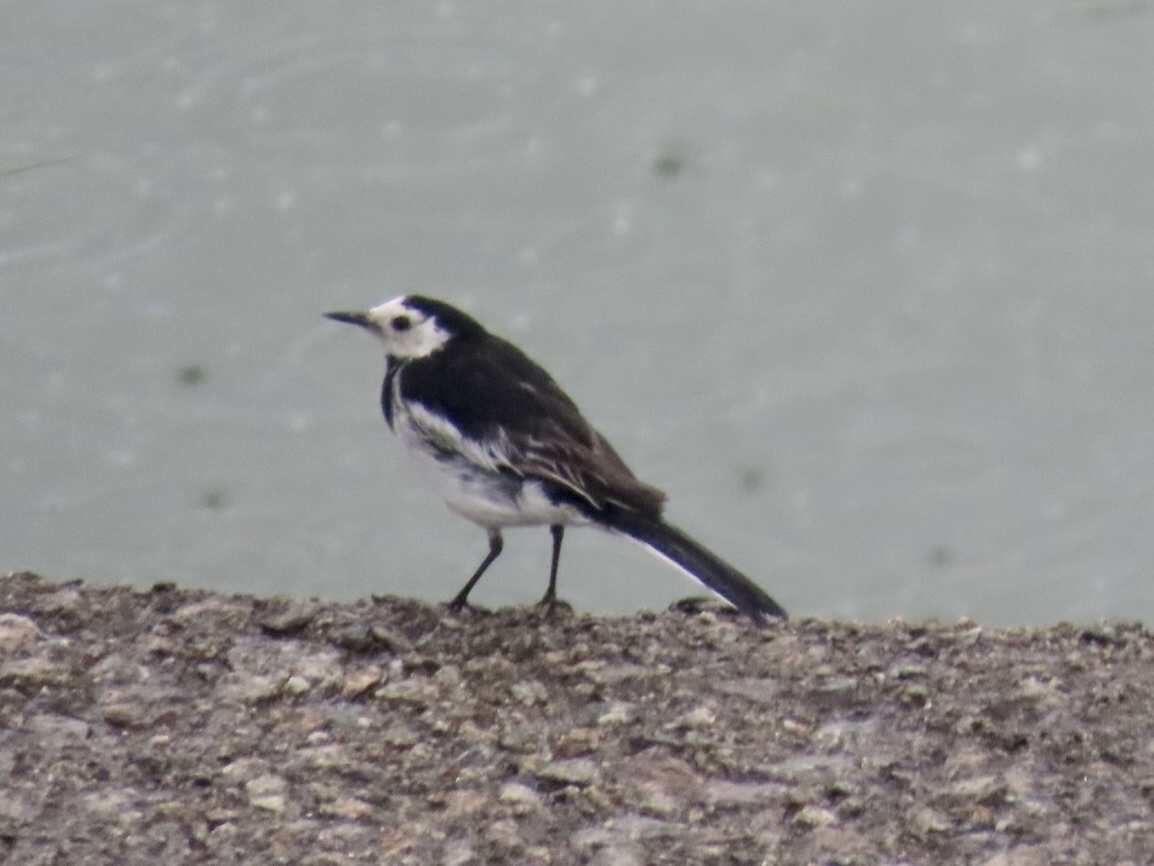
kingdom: Animalia
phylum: Chordata
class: Aves
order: Passeriformes
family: Motacillidae
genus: Motacilla
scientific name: Motacilla alba
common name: White wagtail
